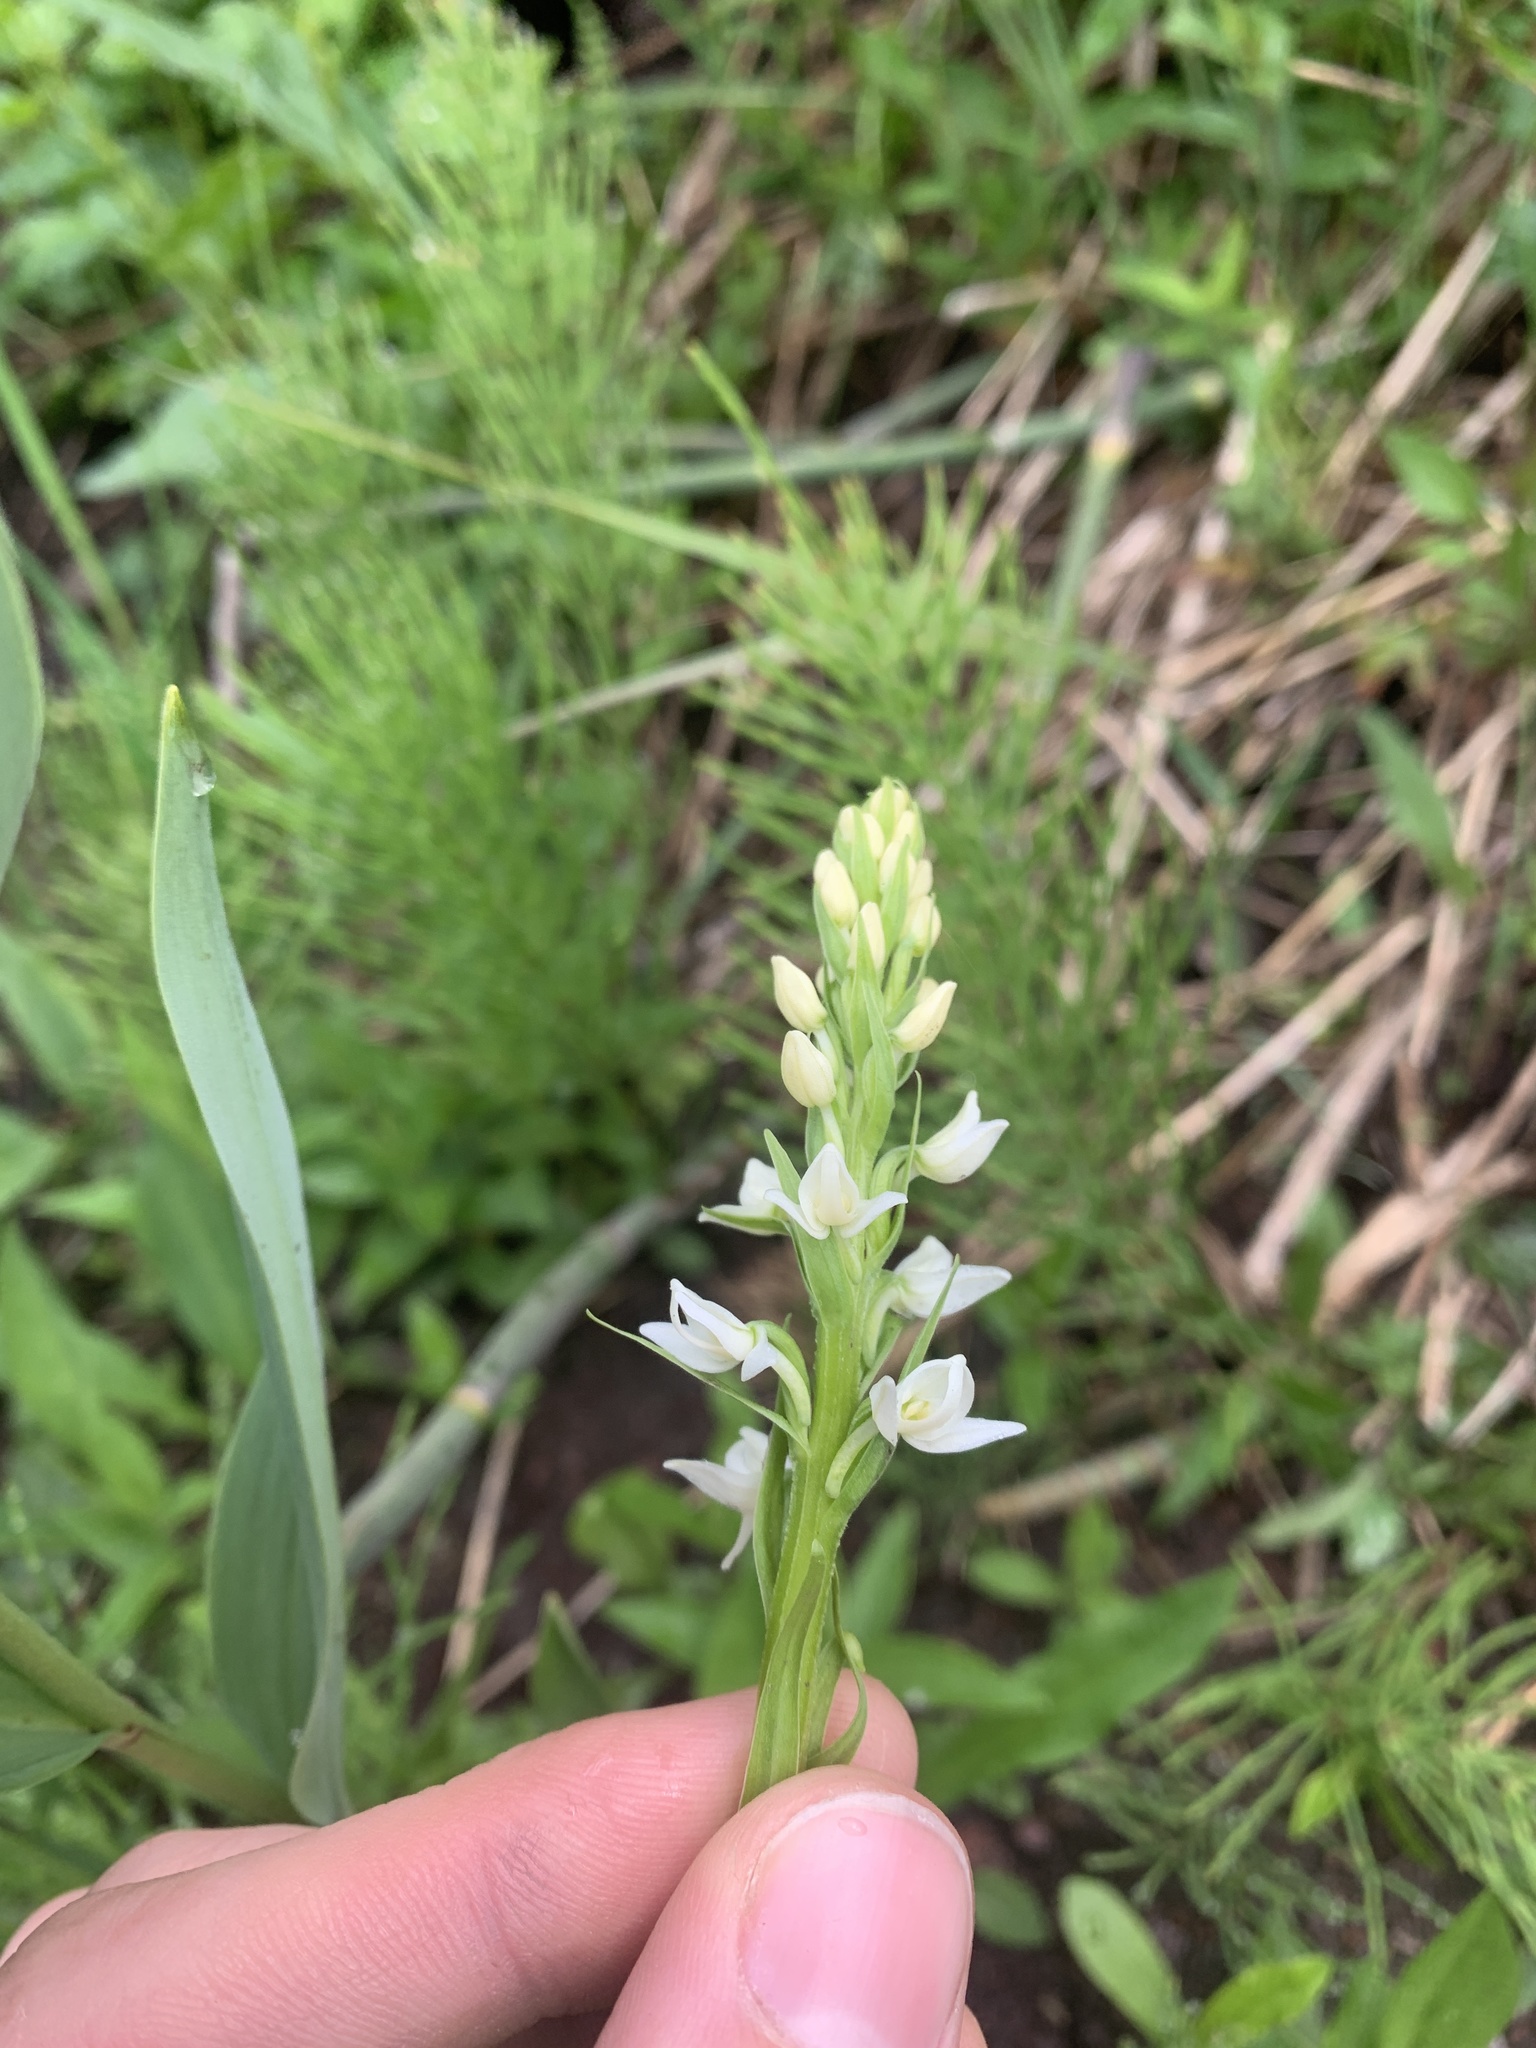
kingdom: Plantae
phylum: Tracheophyta
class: Liliopsida
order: Asparagales
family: Orchidaceae
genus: Platanthera
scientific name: Platanthera dilatata
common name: Bog candles
